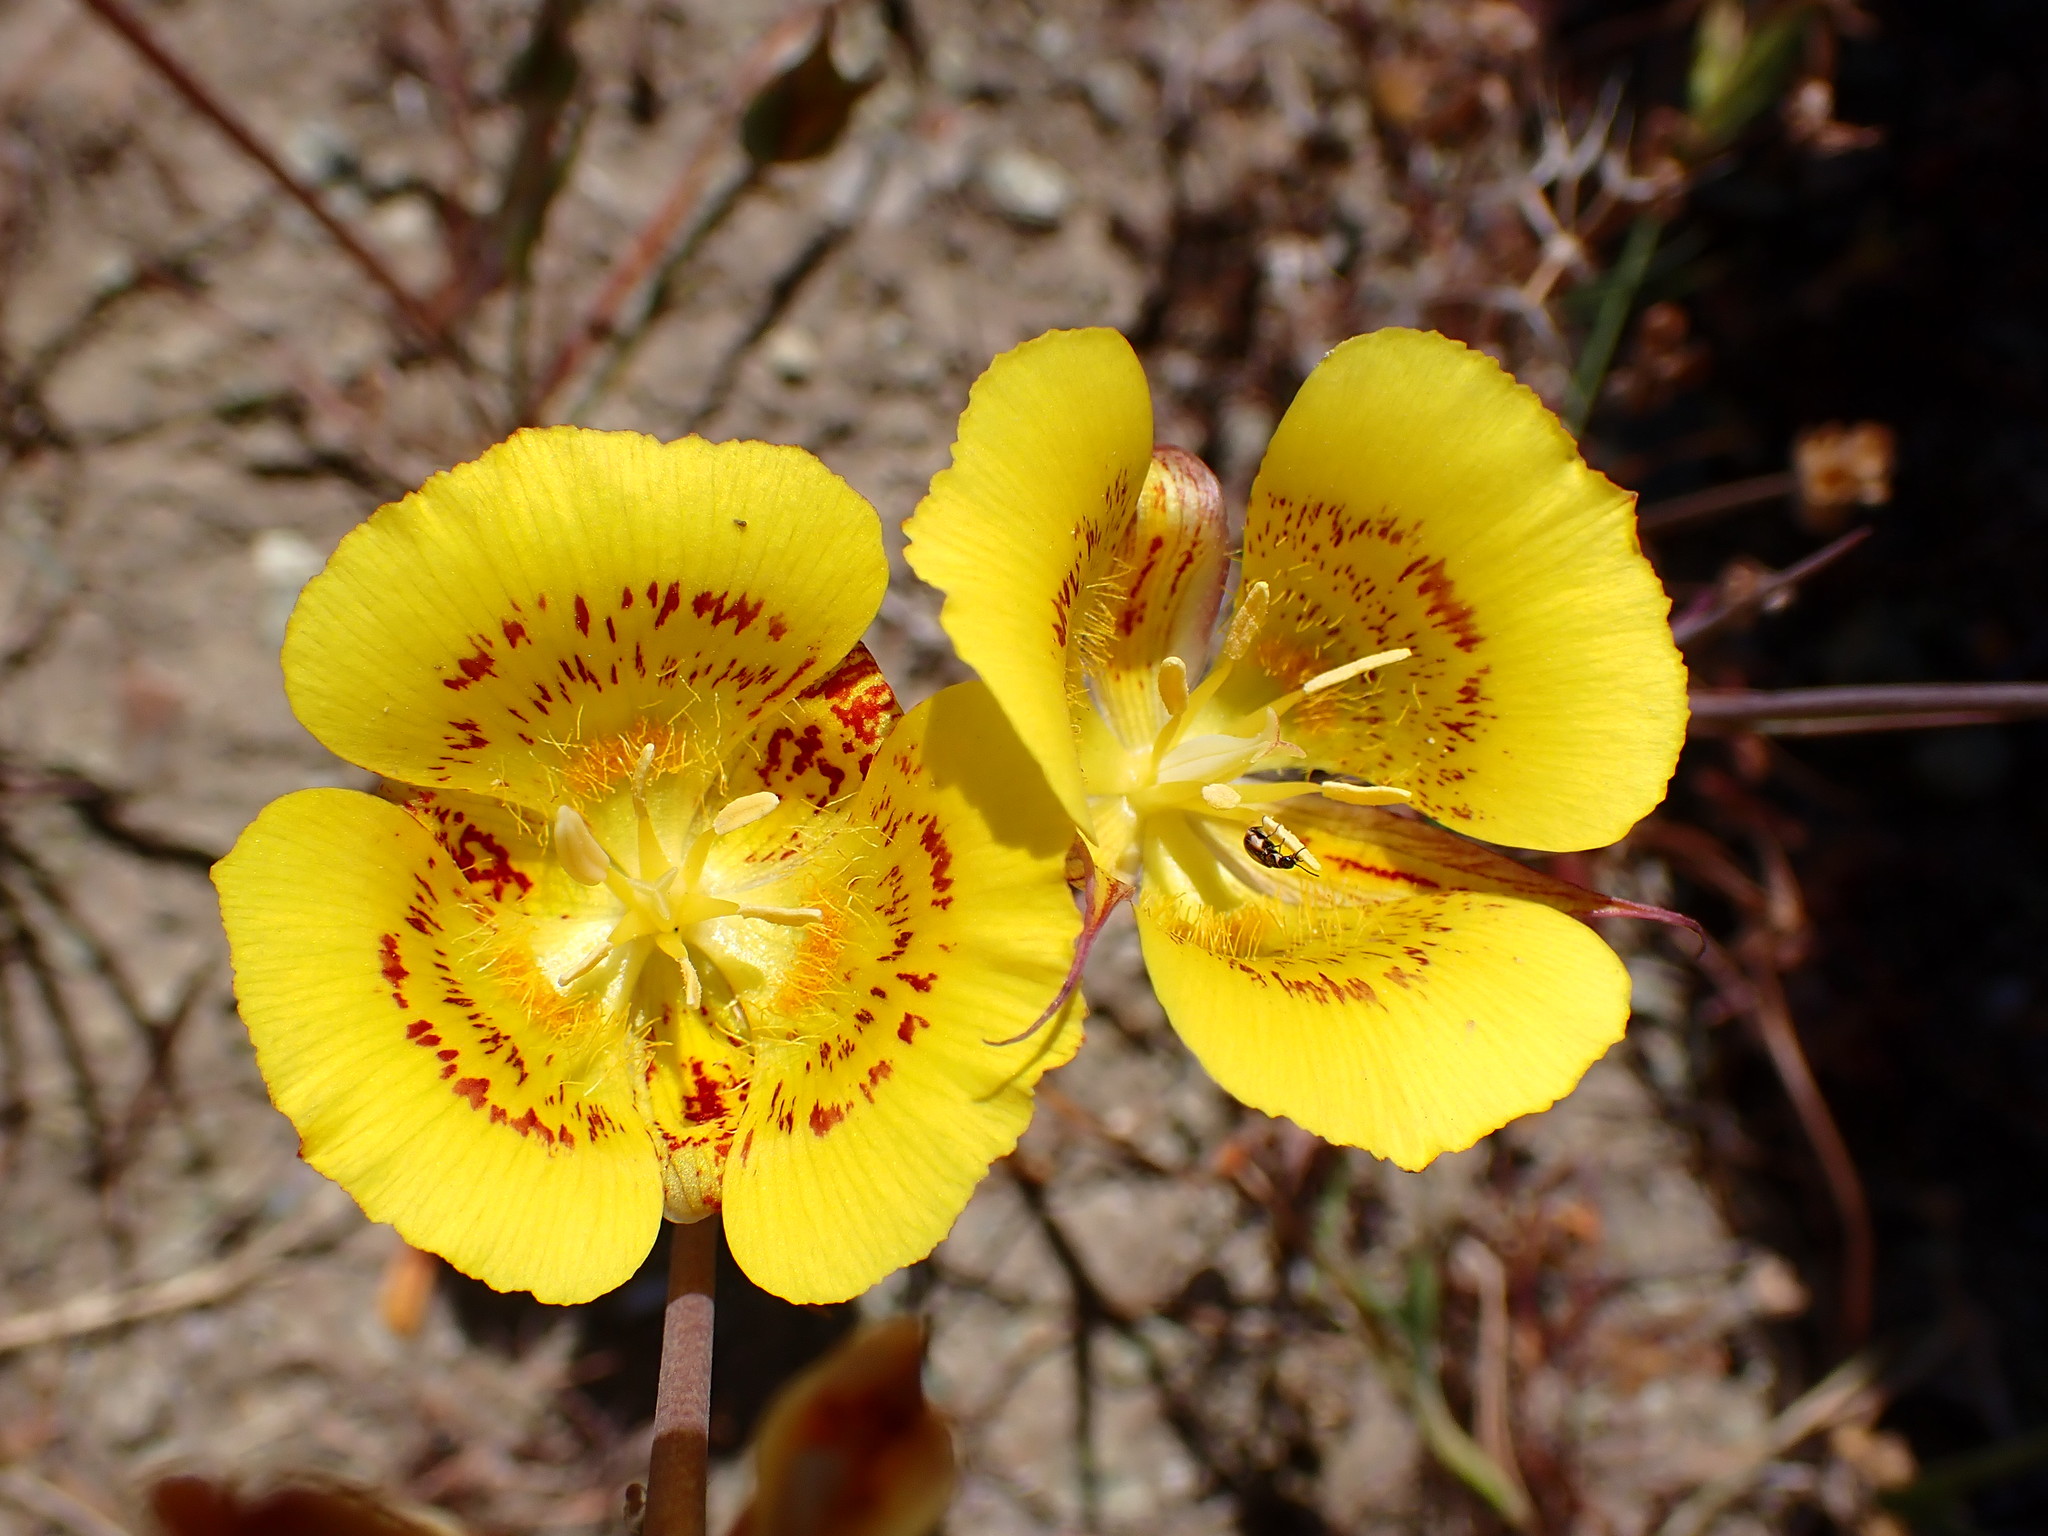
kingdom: Plantae
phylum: Tracheophyta
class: Liliopsida
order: Liliales
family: Liliaceae
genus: Calochortus
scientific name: Calochortus luteus
